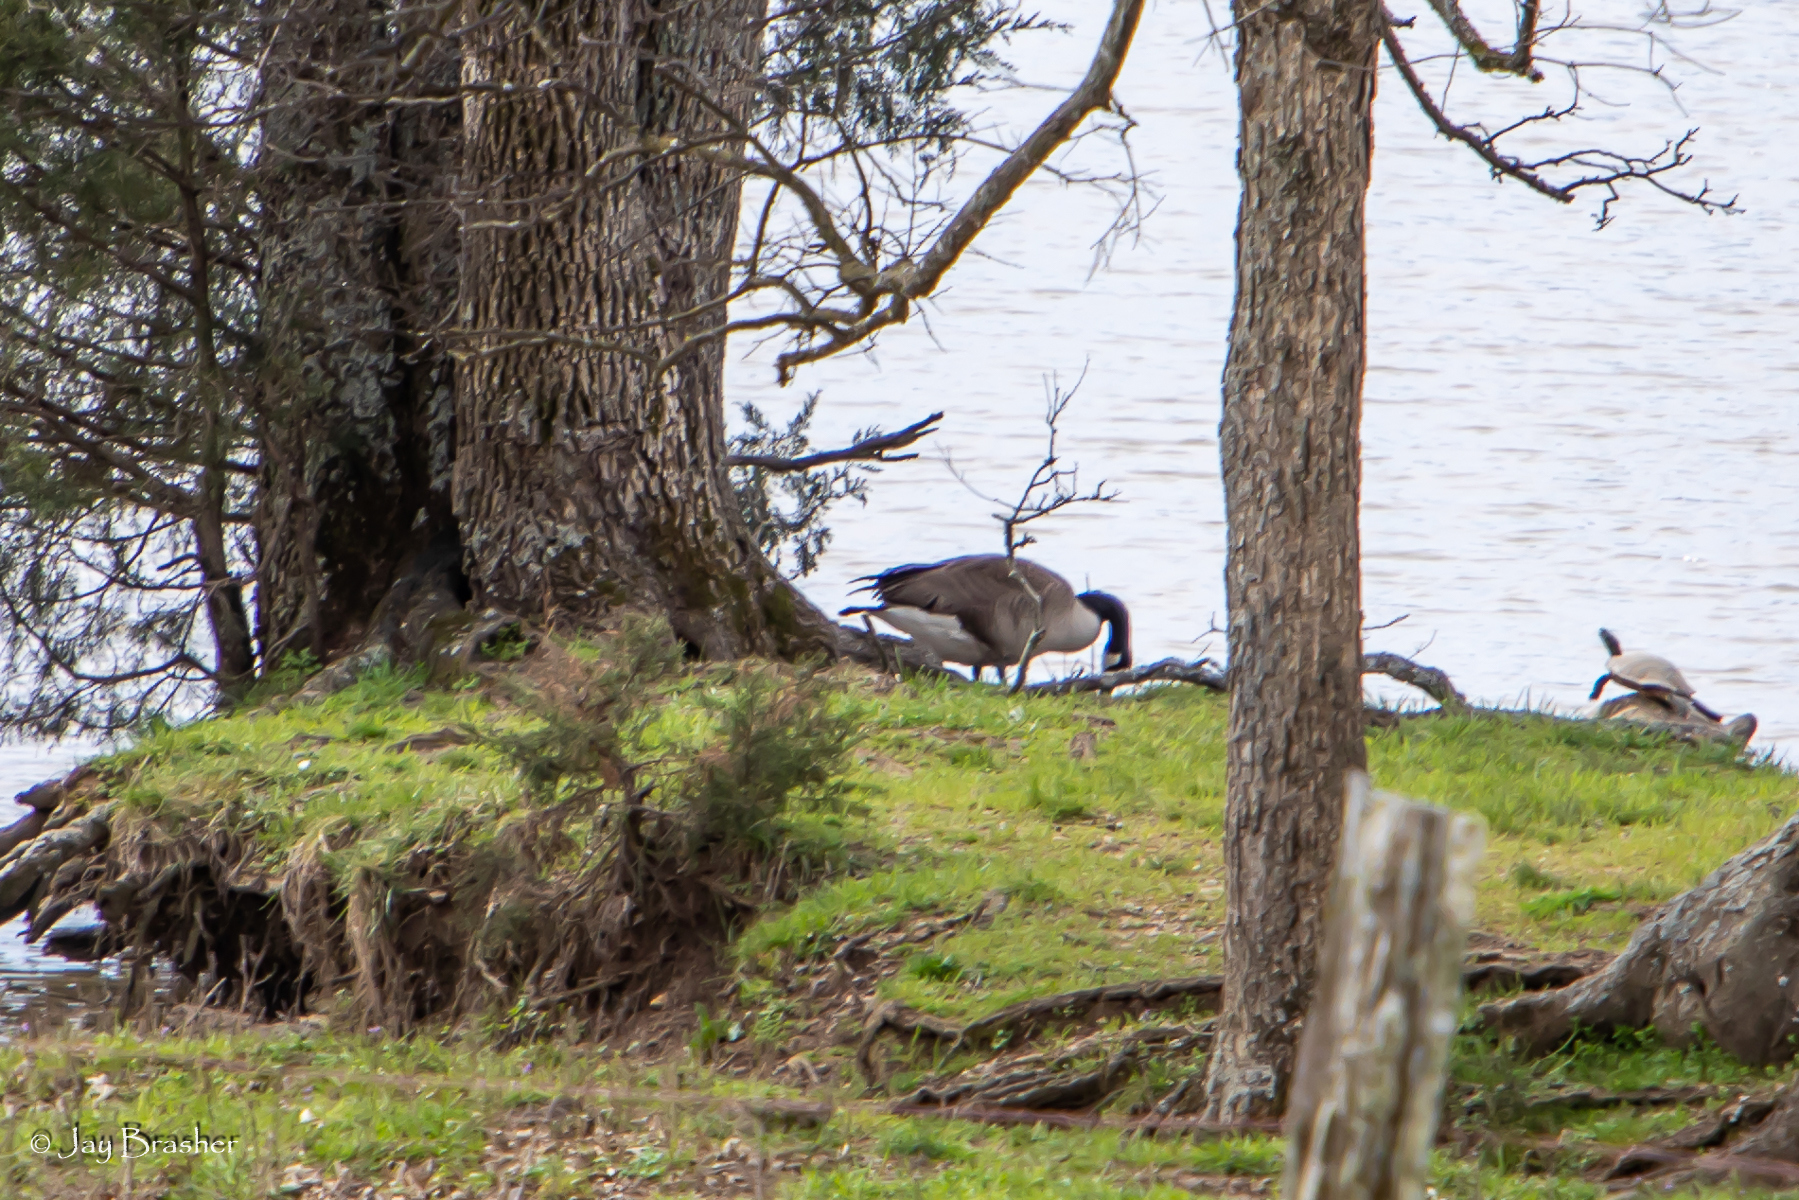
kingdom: Animalia
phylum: Chordata
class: Aves
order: Anseriformes
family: Anatidae
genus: Branta
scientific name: Branta canadensis
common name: Canada goose
